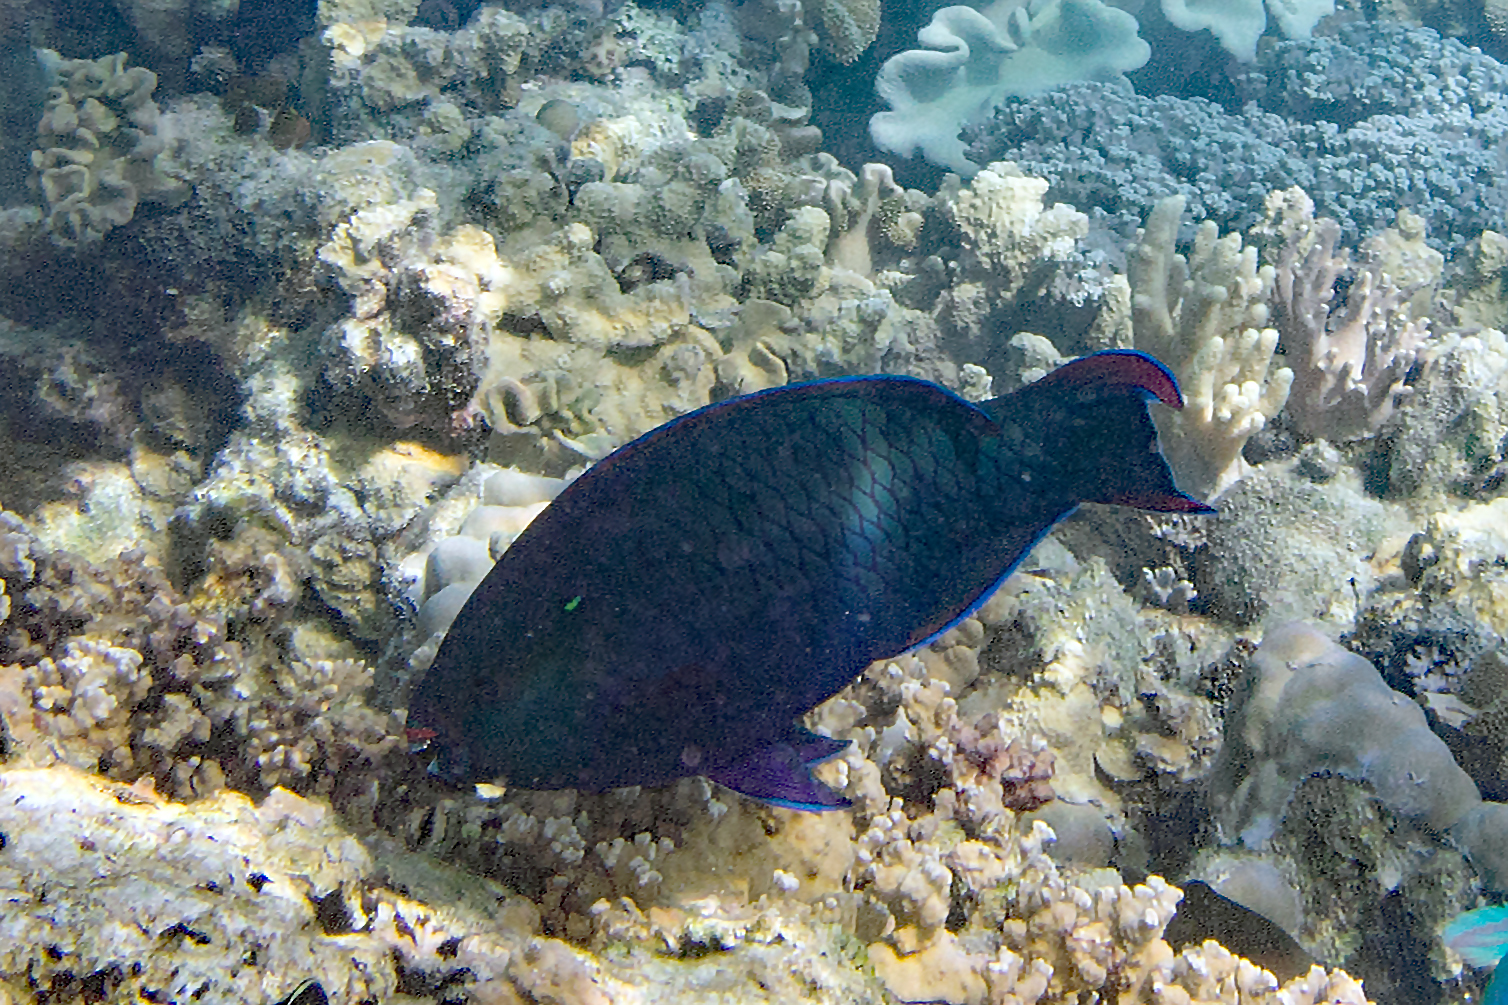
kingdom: Animalia
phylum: Chordata
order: Perciformes
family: Scaridae
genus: Scarus
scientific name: Scarus niger
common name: Dusky parrotfish
